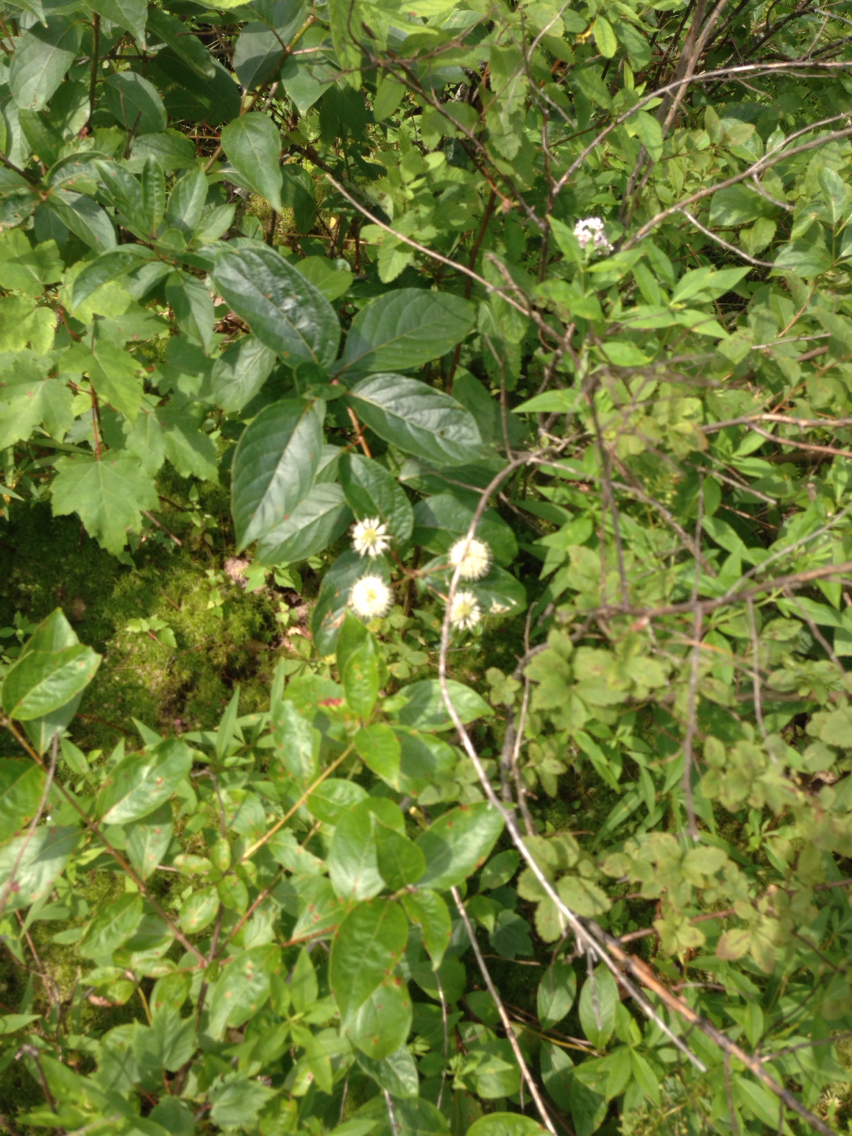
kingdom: Plantae
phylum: Tracheophyta
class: Magnoliopsida
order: Gentianales
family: Rubiaceae
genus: Cephalanthus
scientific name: Cephalanthus occidentalis
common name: Button-willow
